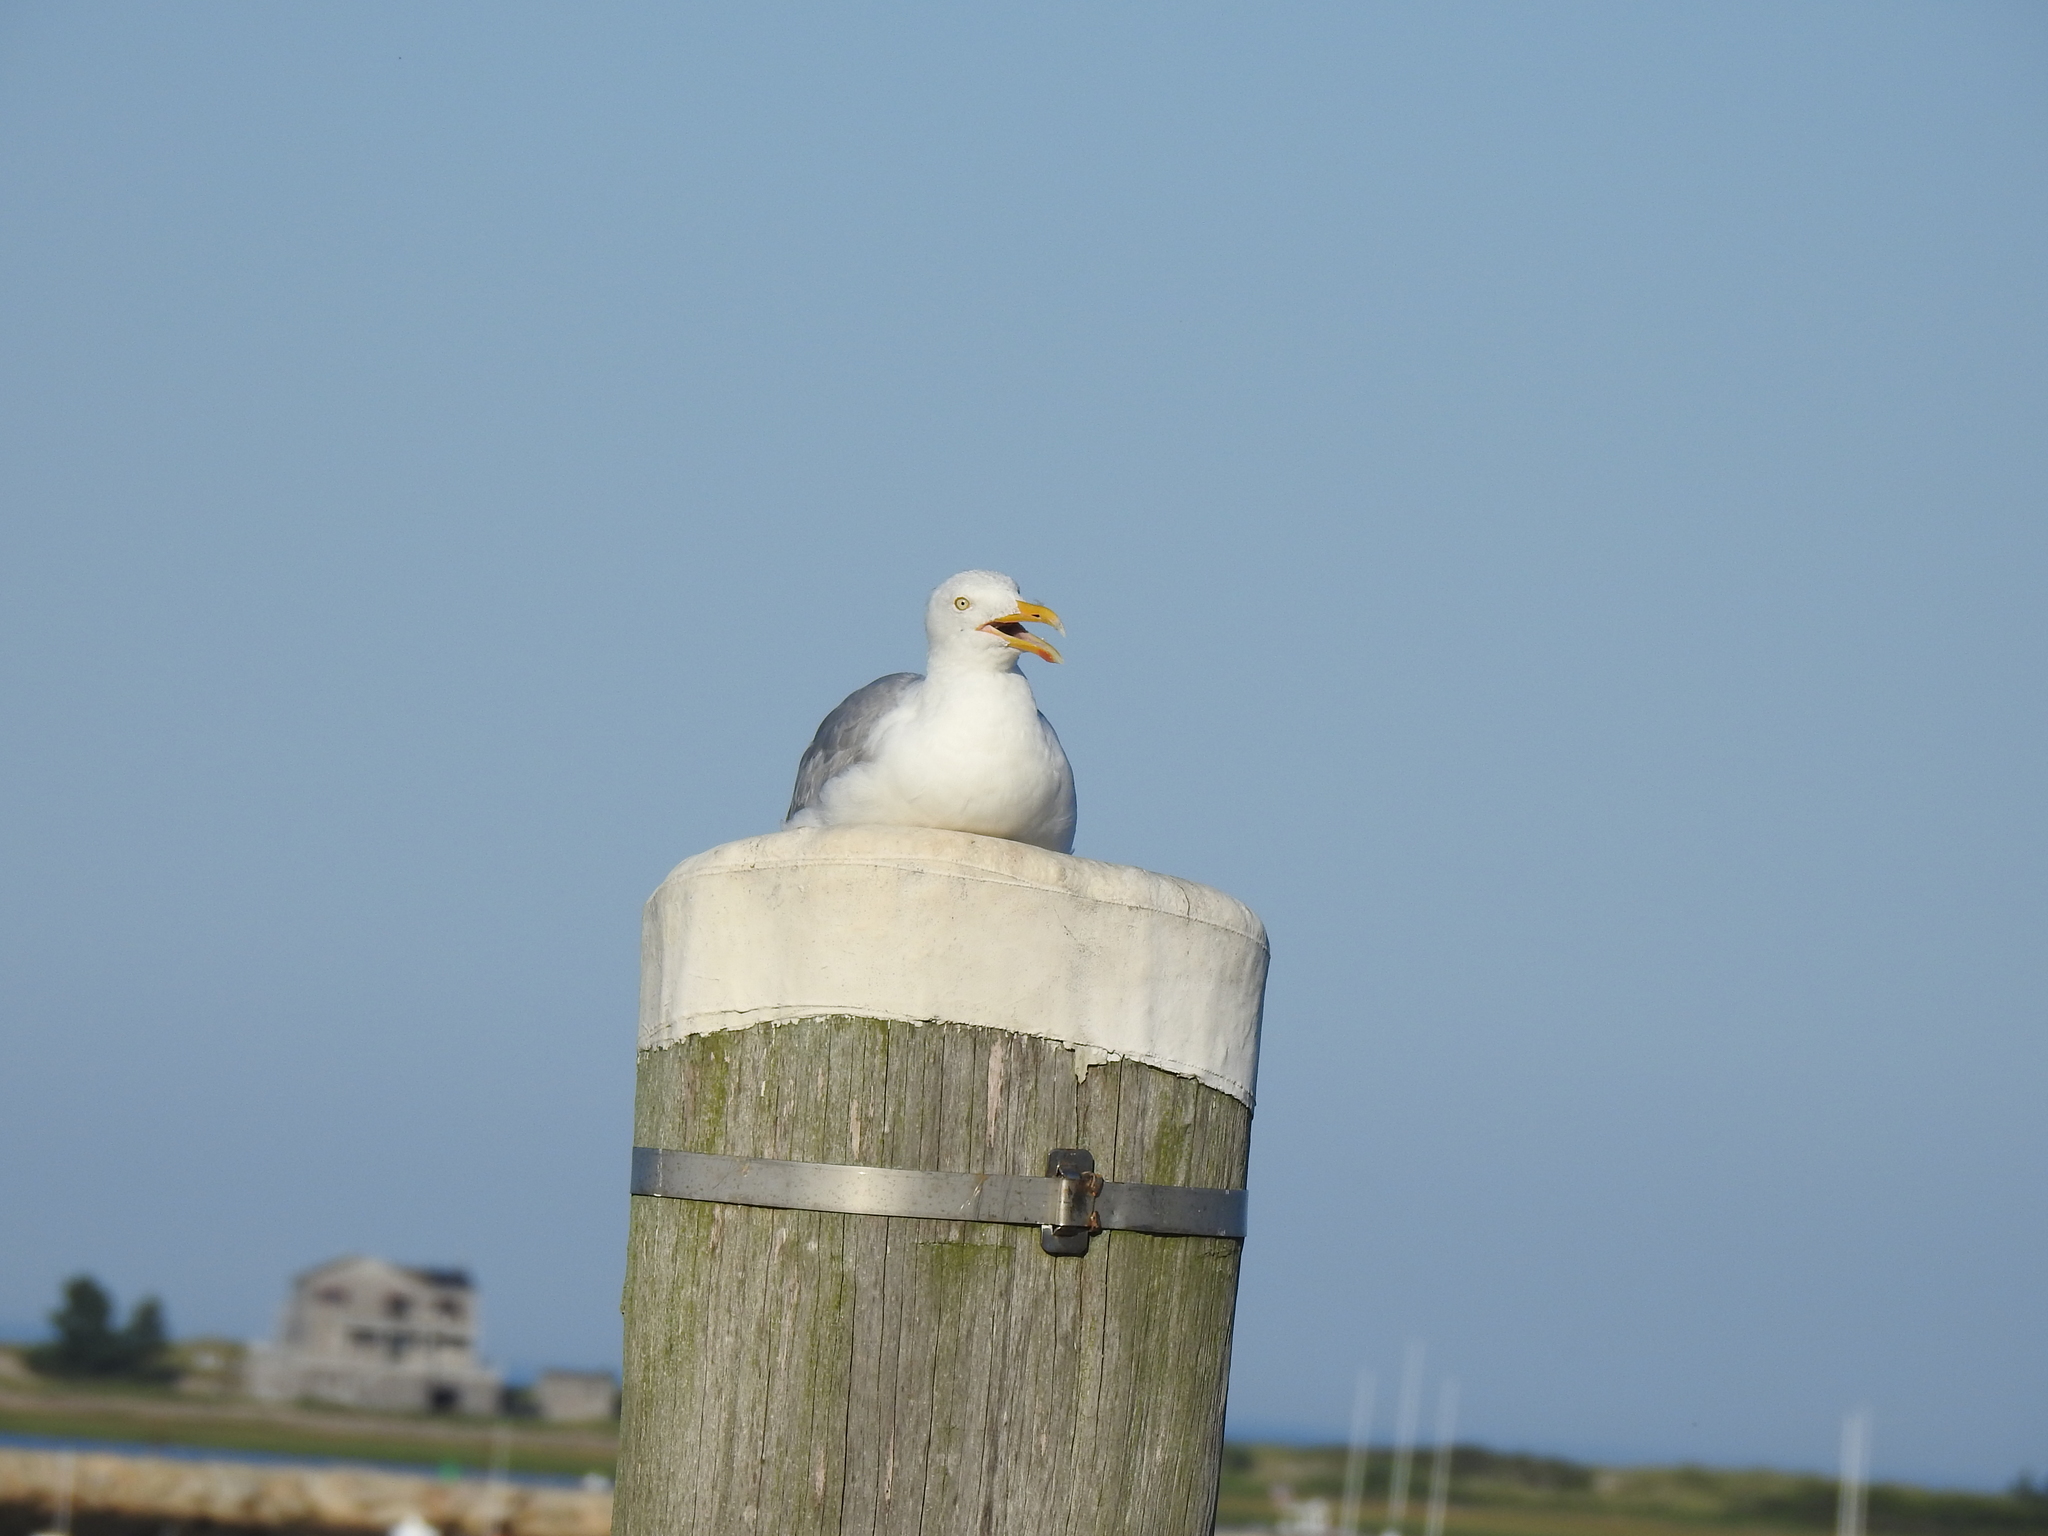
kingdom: Animalia
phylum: Chordata
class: Aves
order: Charadriiformes
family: Laridae
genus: Larus
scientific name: Larus argentatus
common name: Herring gull
